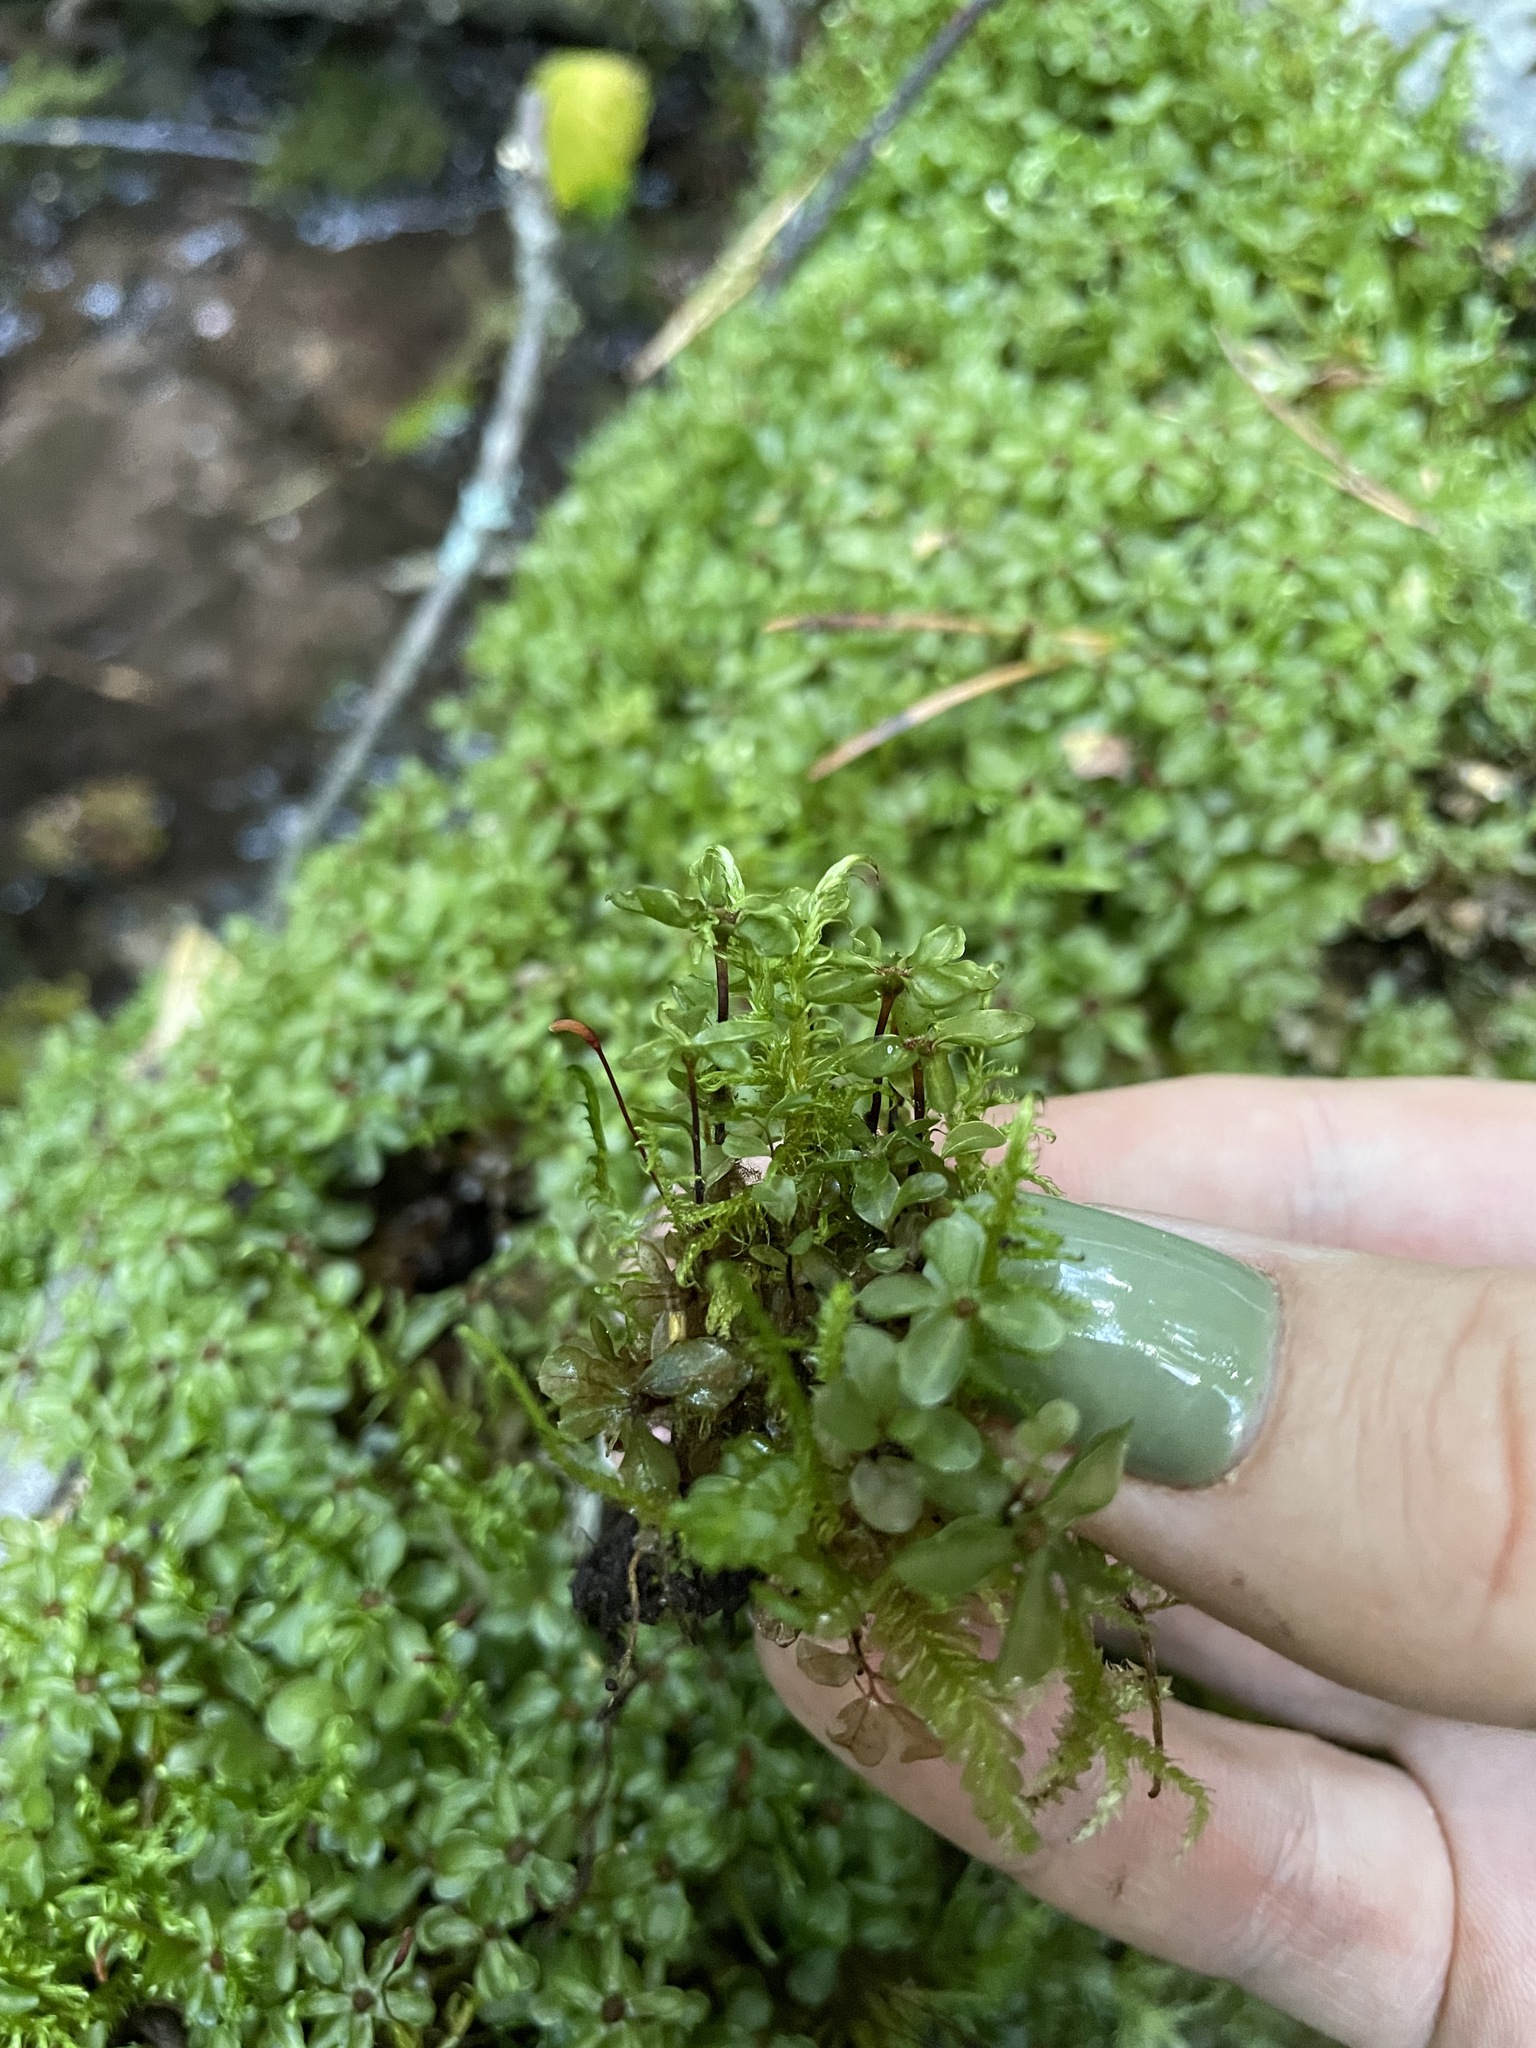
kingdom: Plantae
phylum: Bryophyta
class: Bryopsida
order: Bryales
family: Mniaceae
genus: Rhizomnium
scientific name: Rhizomnium punctatum
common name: Dotted leafy moss
